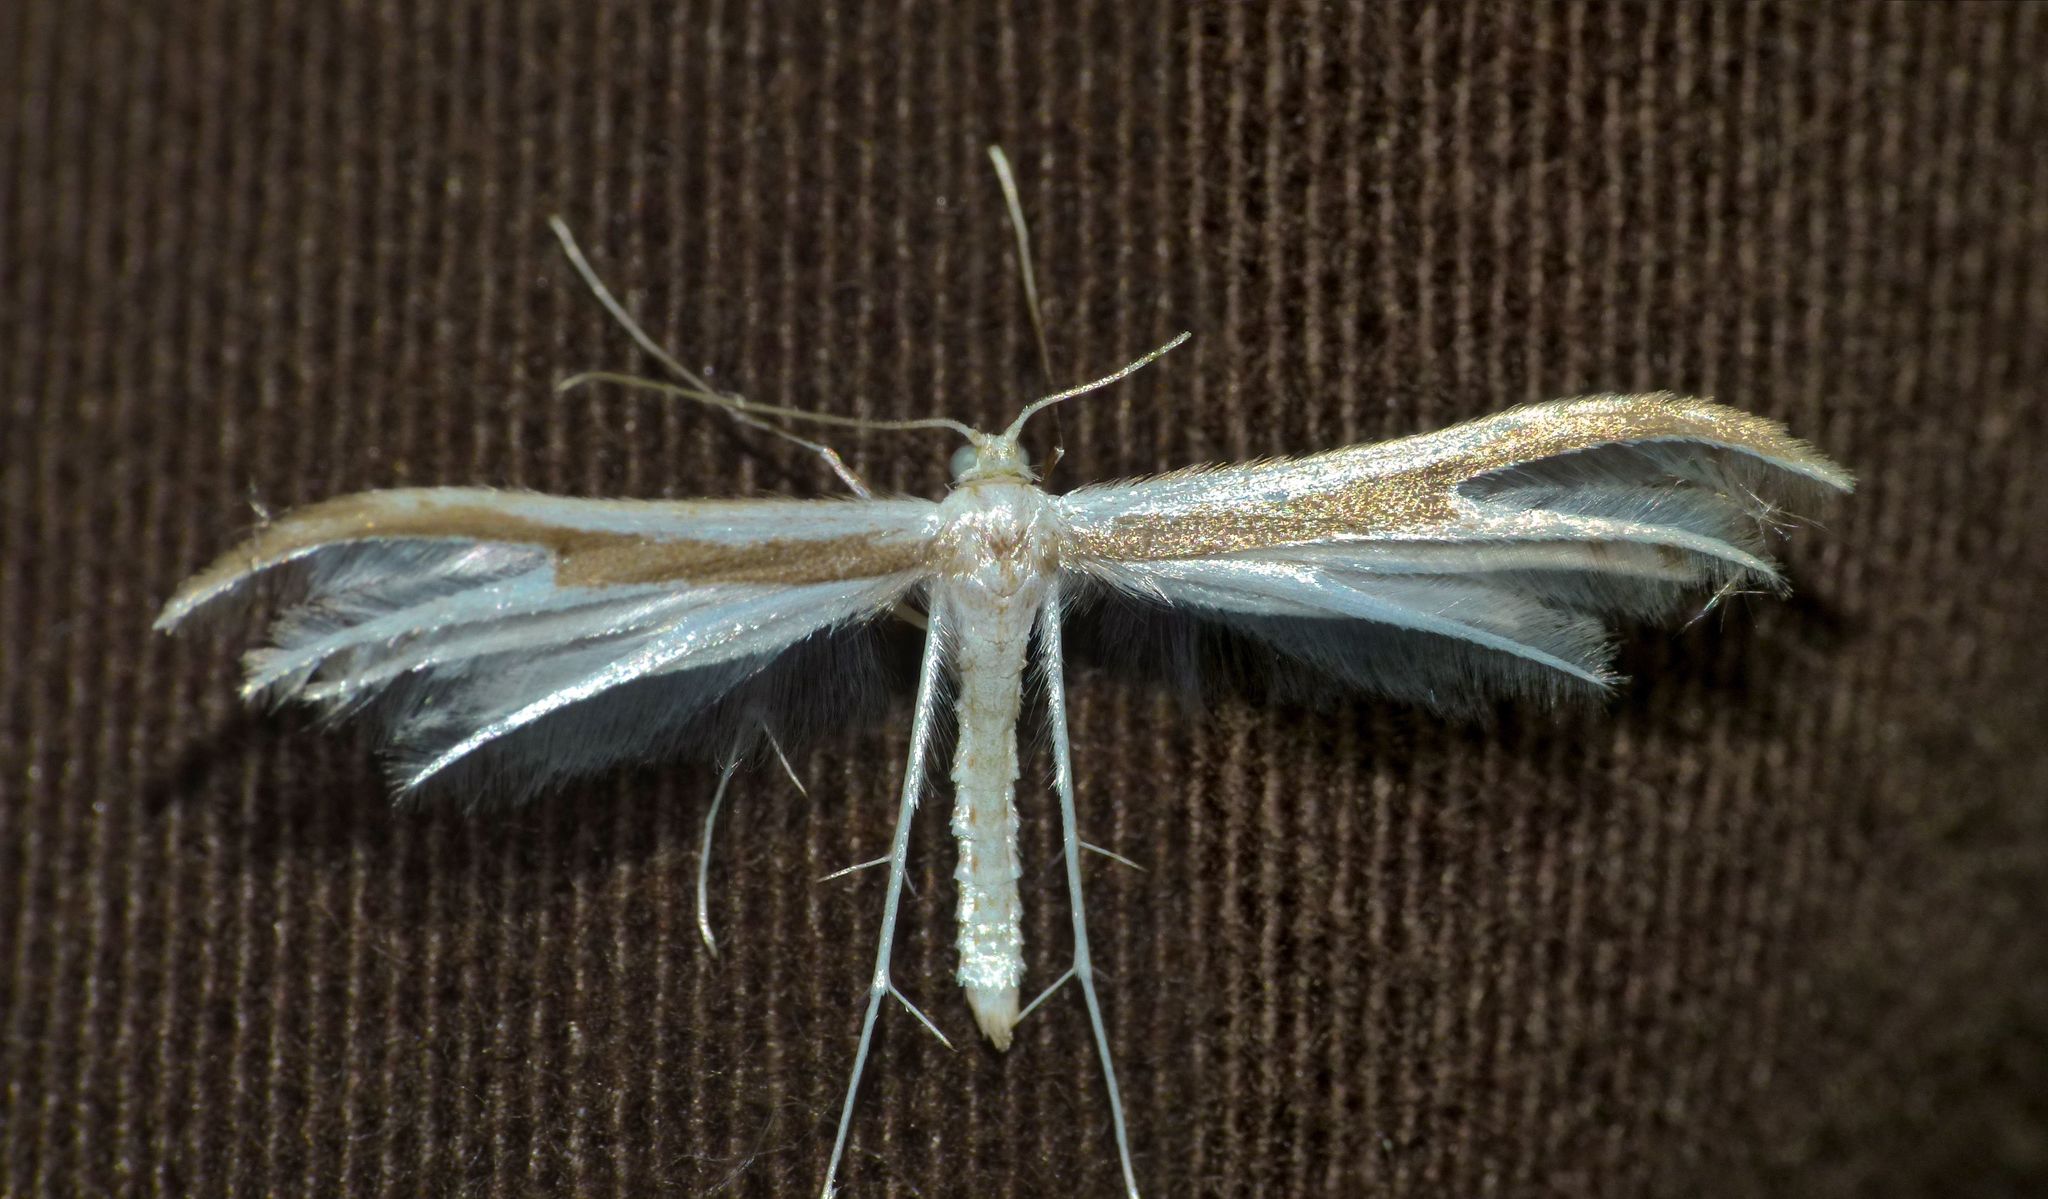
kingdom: Animalia
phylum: Arthropoda
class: Insecta
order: Lepidoptera
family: Pterophoridae
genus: Pterophorus
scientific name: Pterophorus monospilalis
